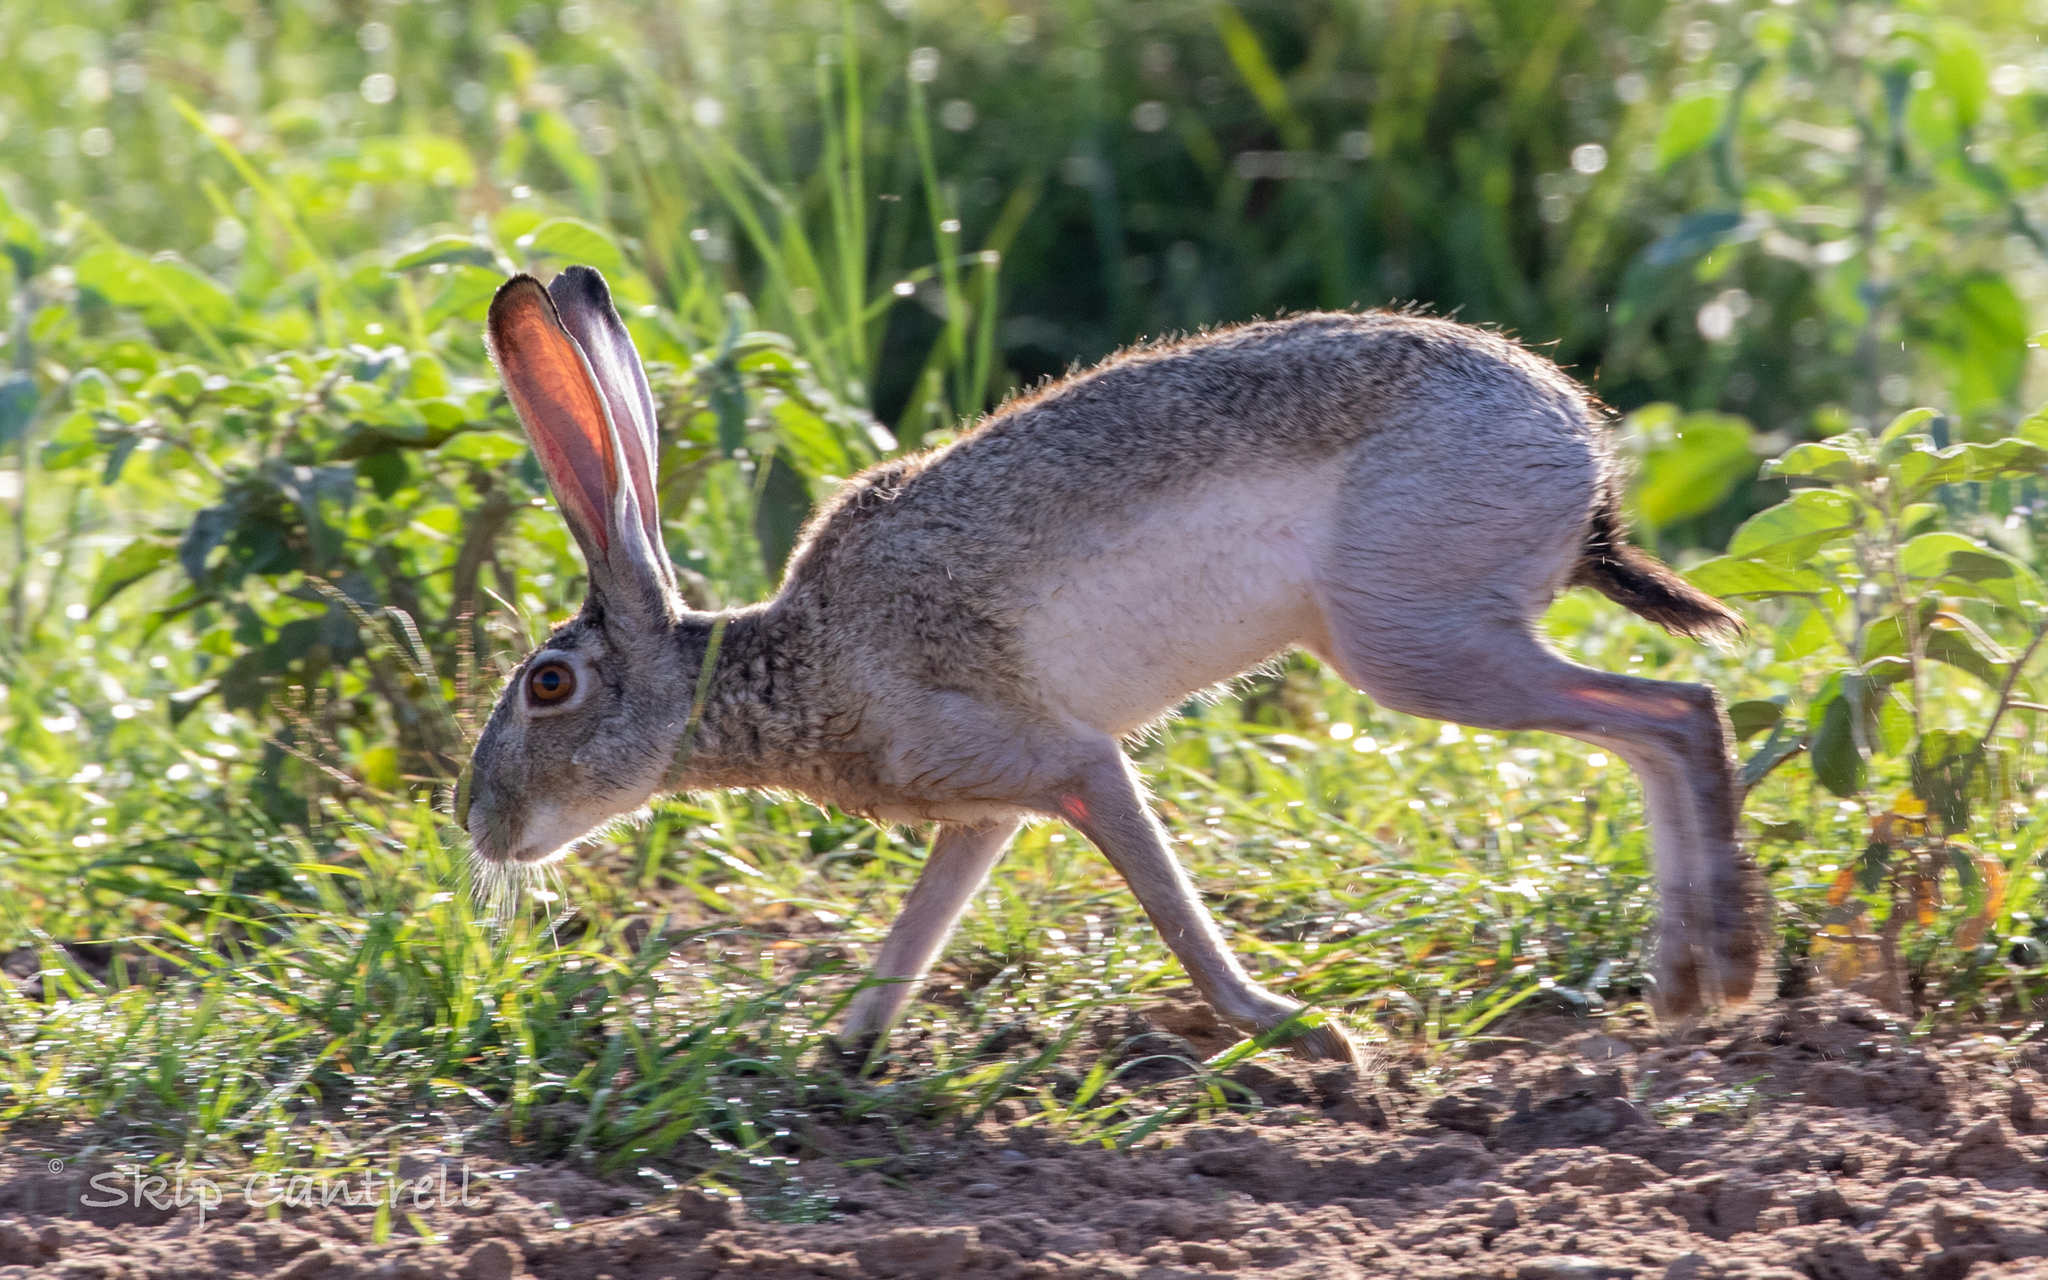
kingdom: Animalia
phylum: Chordata
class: Mammalia
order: Lagomorpha
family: Leporidae
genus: Lepus
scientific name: Lepus californicus
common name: Black-tailed jackrabbit
